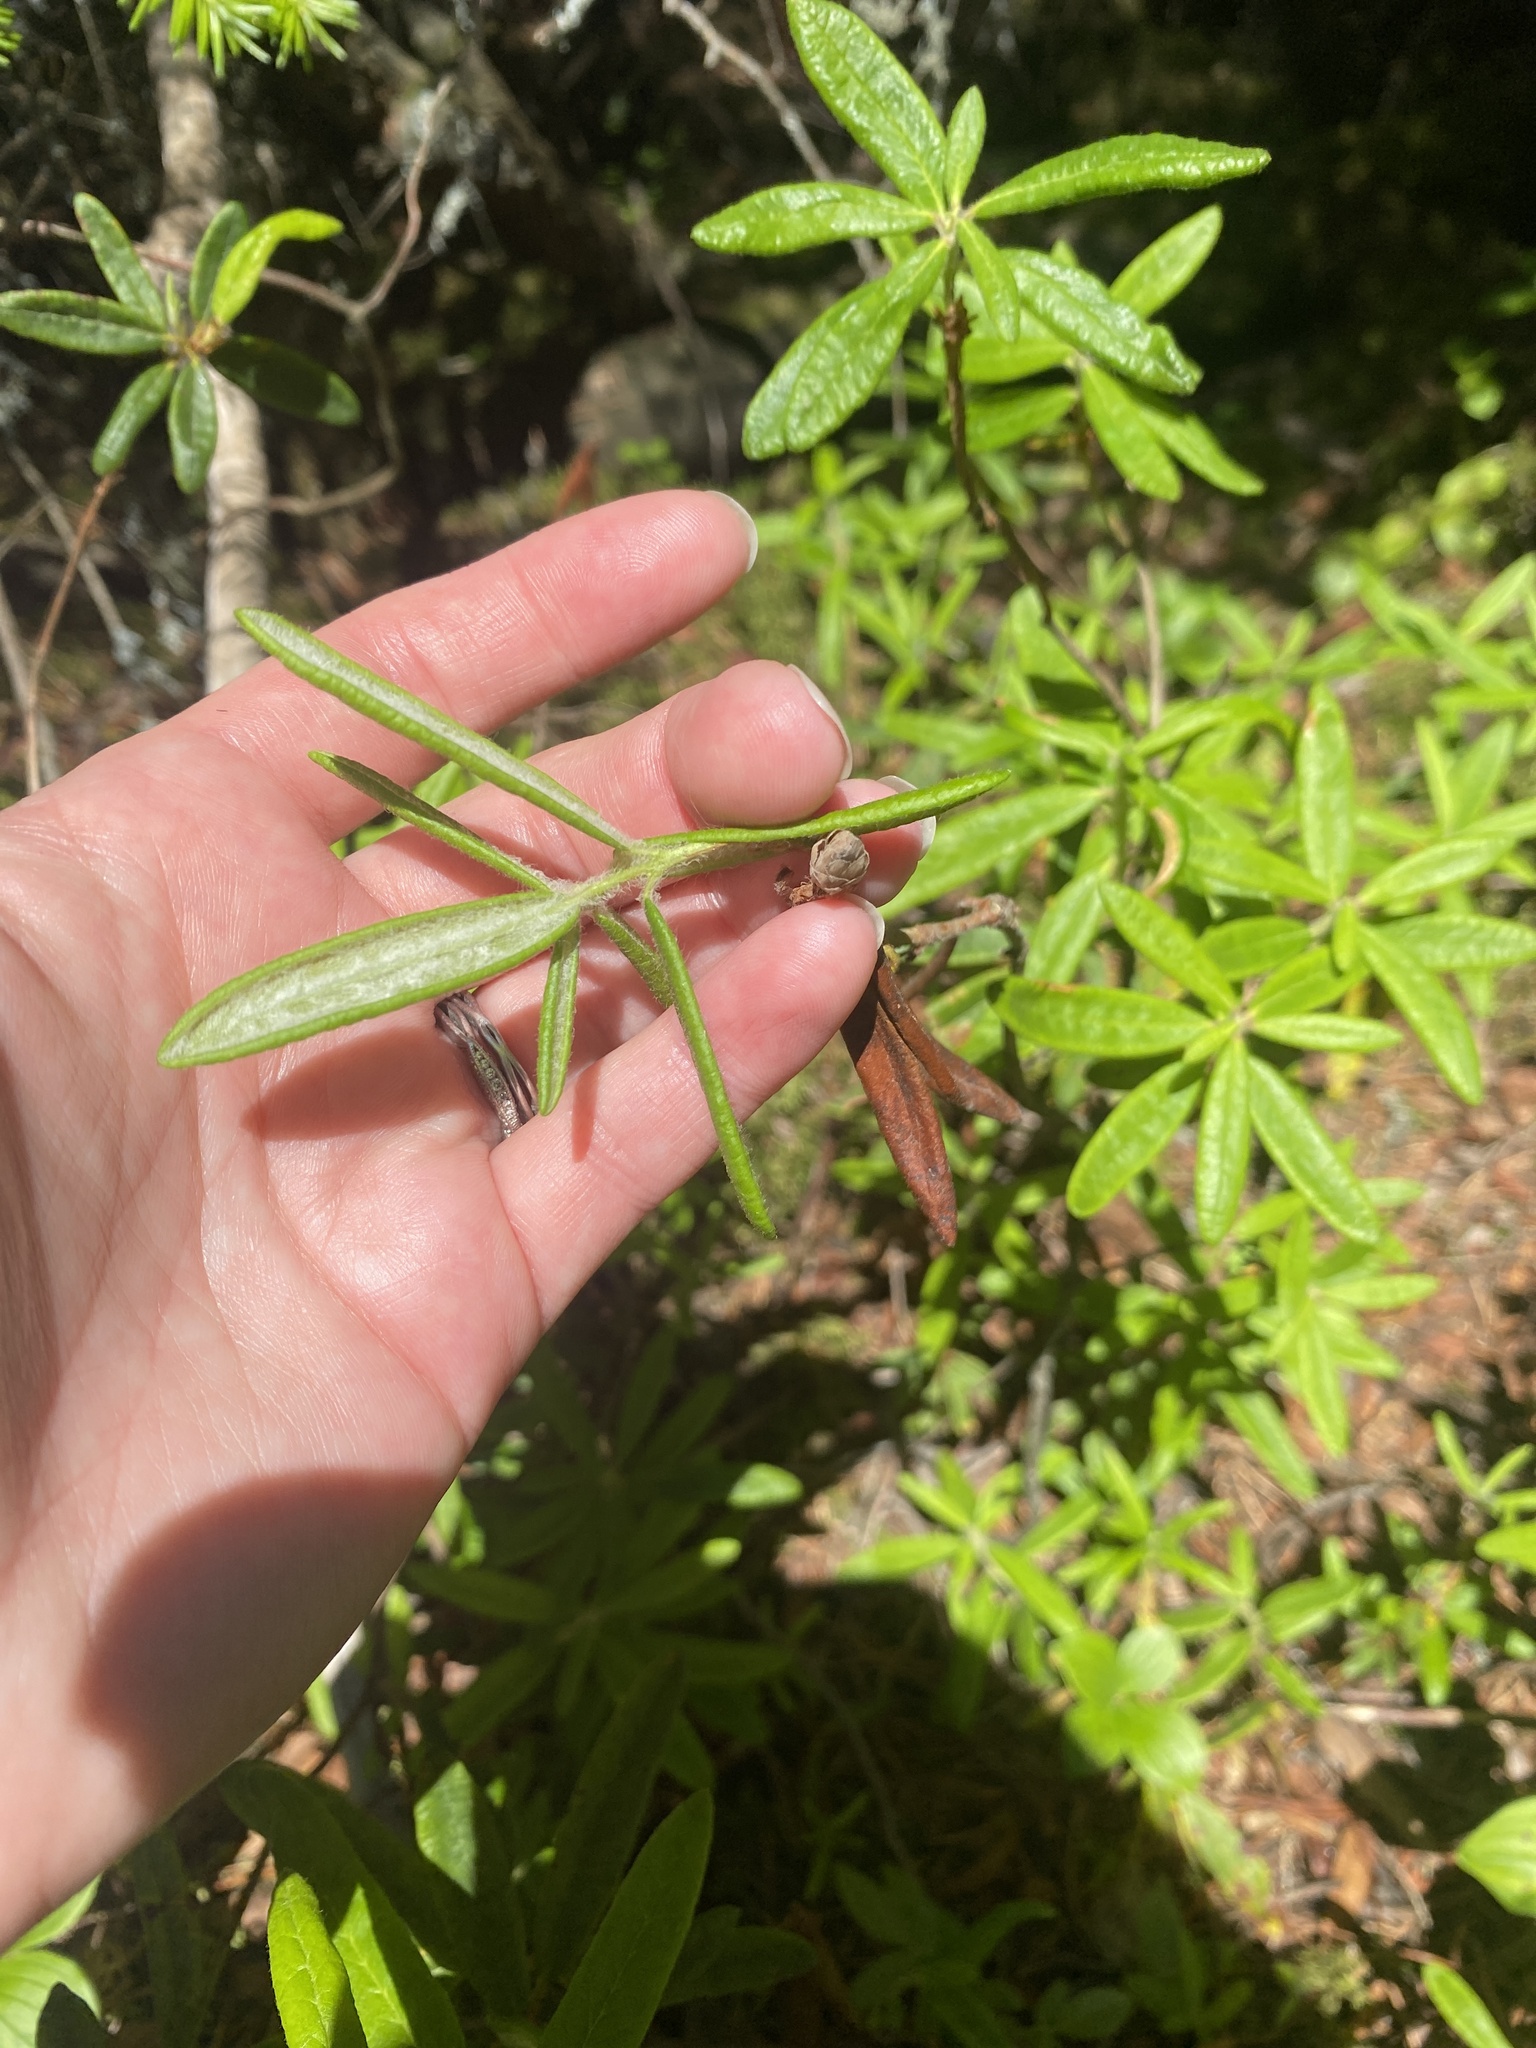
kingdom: Plantae
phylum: Tracheophyta
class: Magnoliopsida
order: Ericales
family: Ericaceae
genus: Rhododendron
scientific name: Rhododendron groenlandicum
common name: Bog labrador tea
